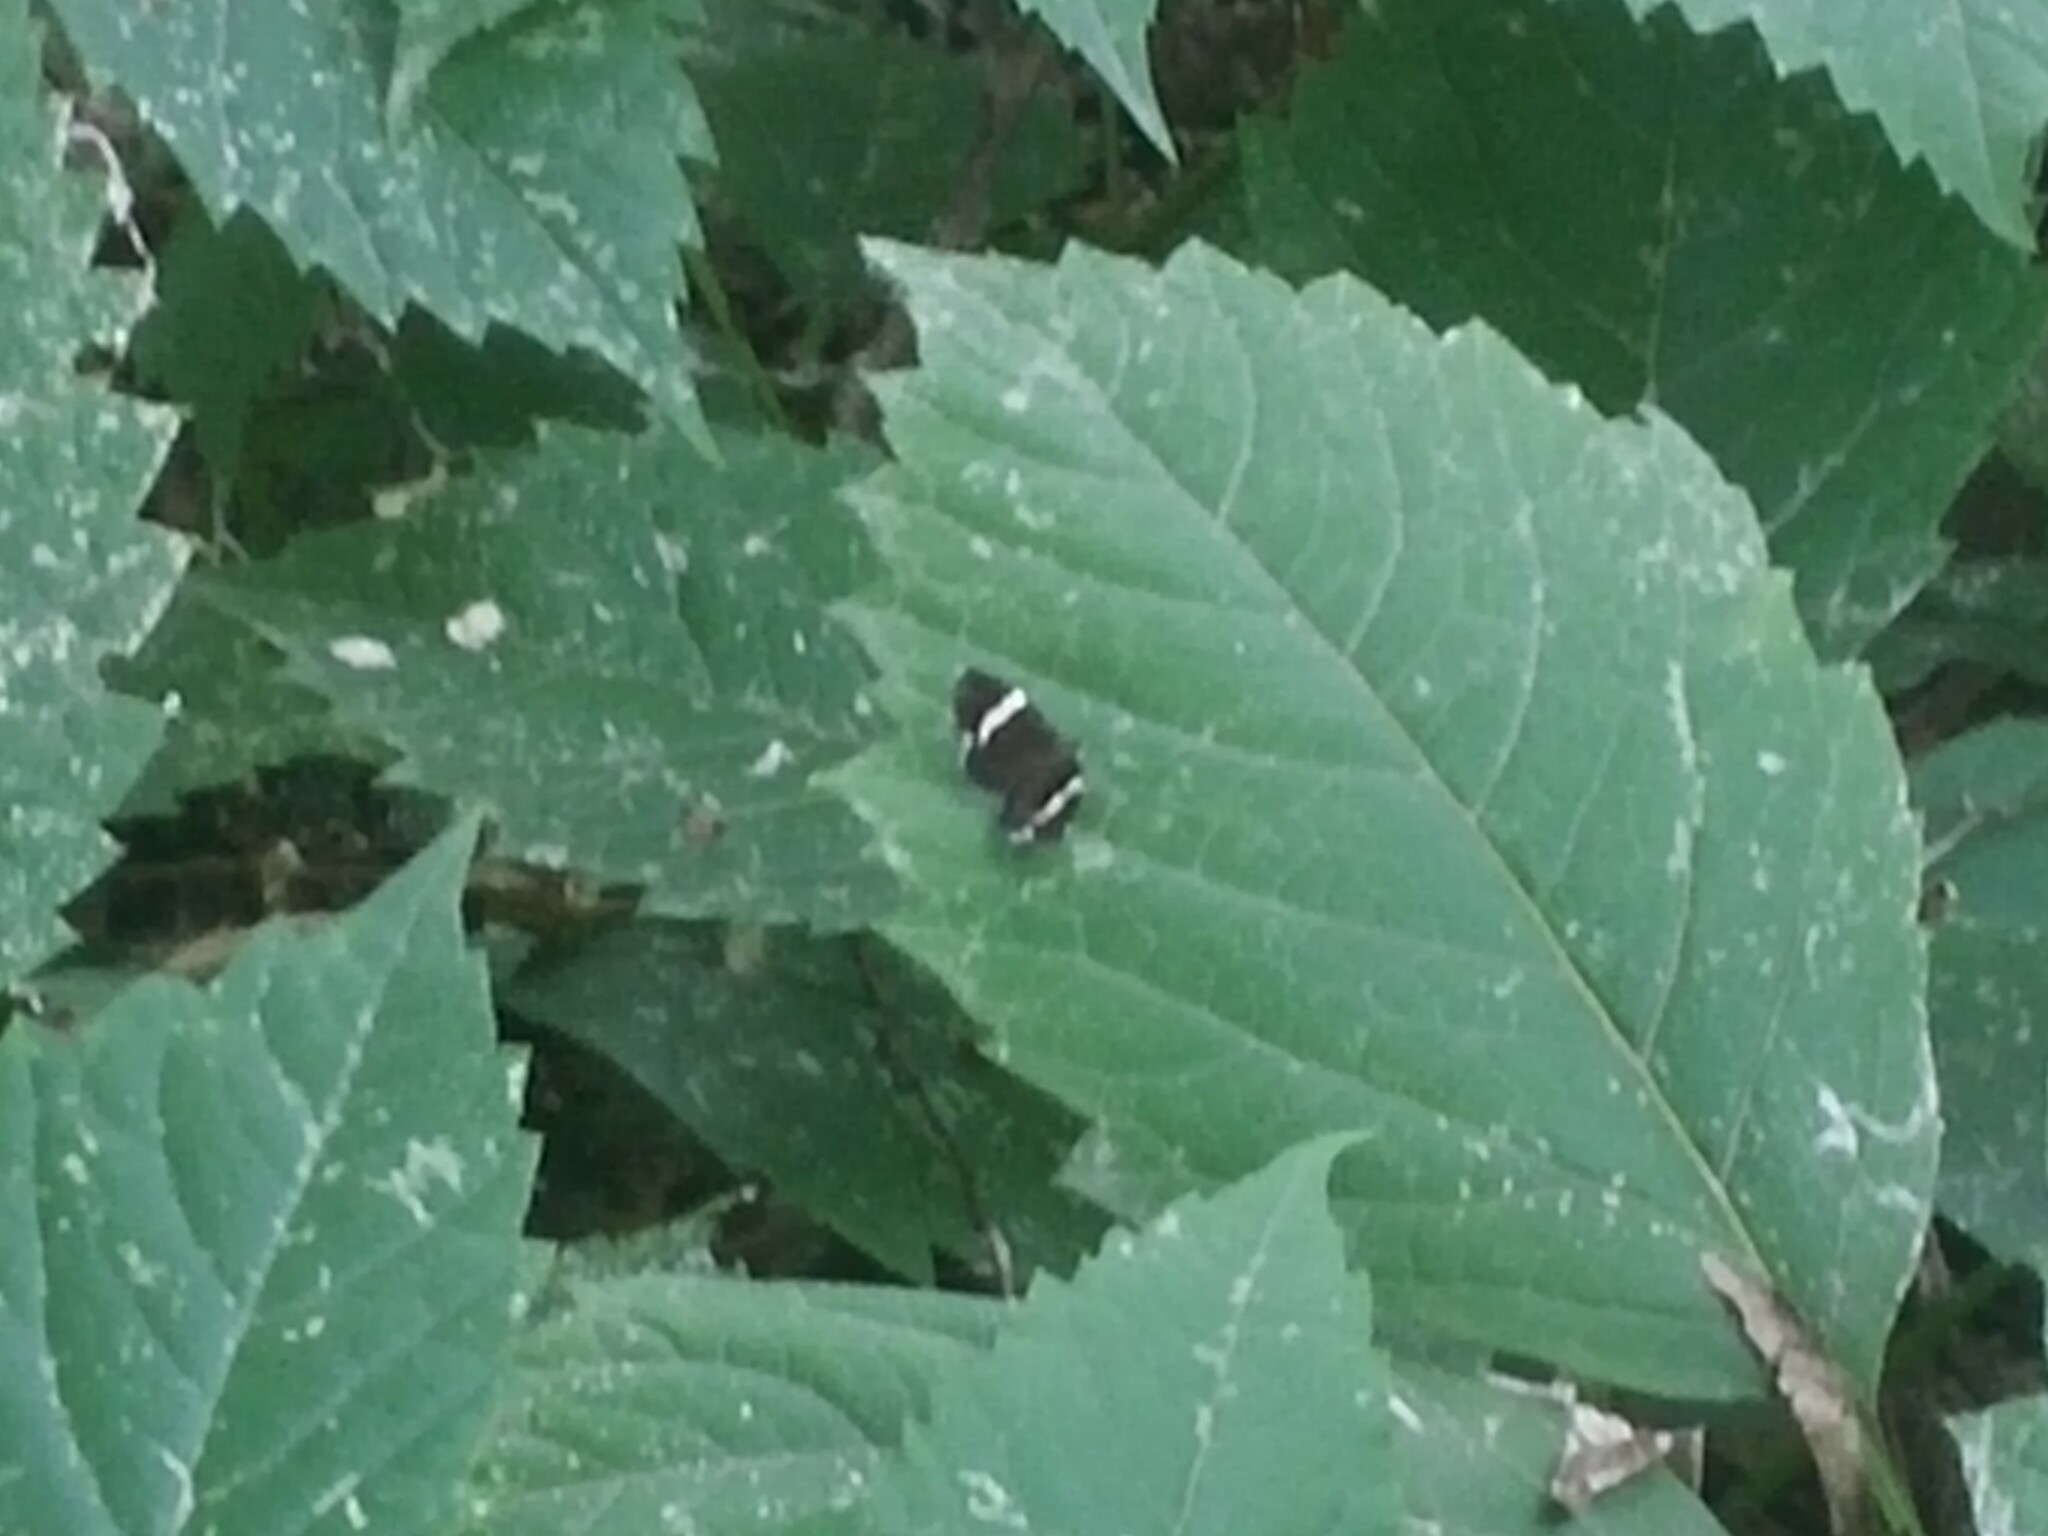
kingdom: Animalia
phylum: Arthropoda
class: Insecta
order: Lepidoptera
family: Geometridae
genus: Trichodezia
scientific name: Trichodezia albovittata
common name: White striped black
